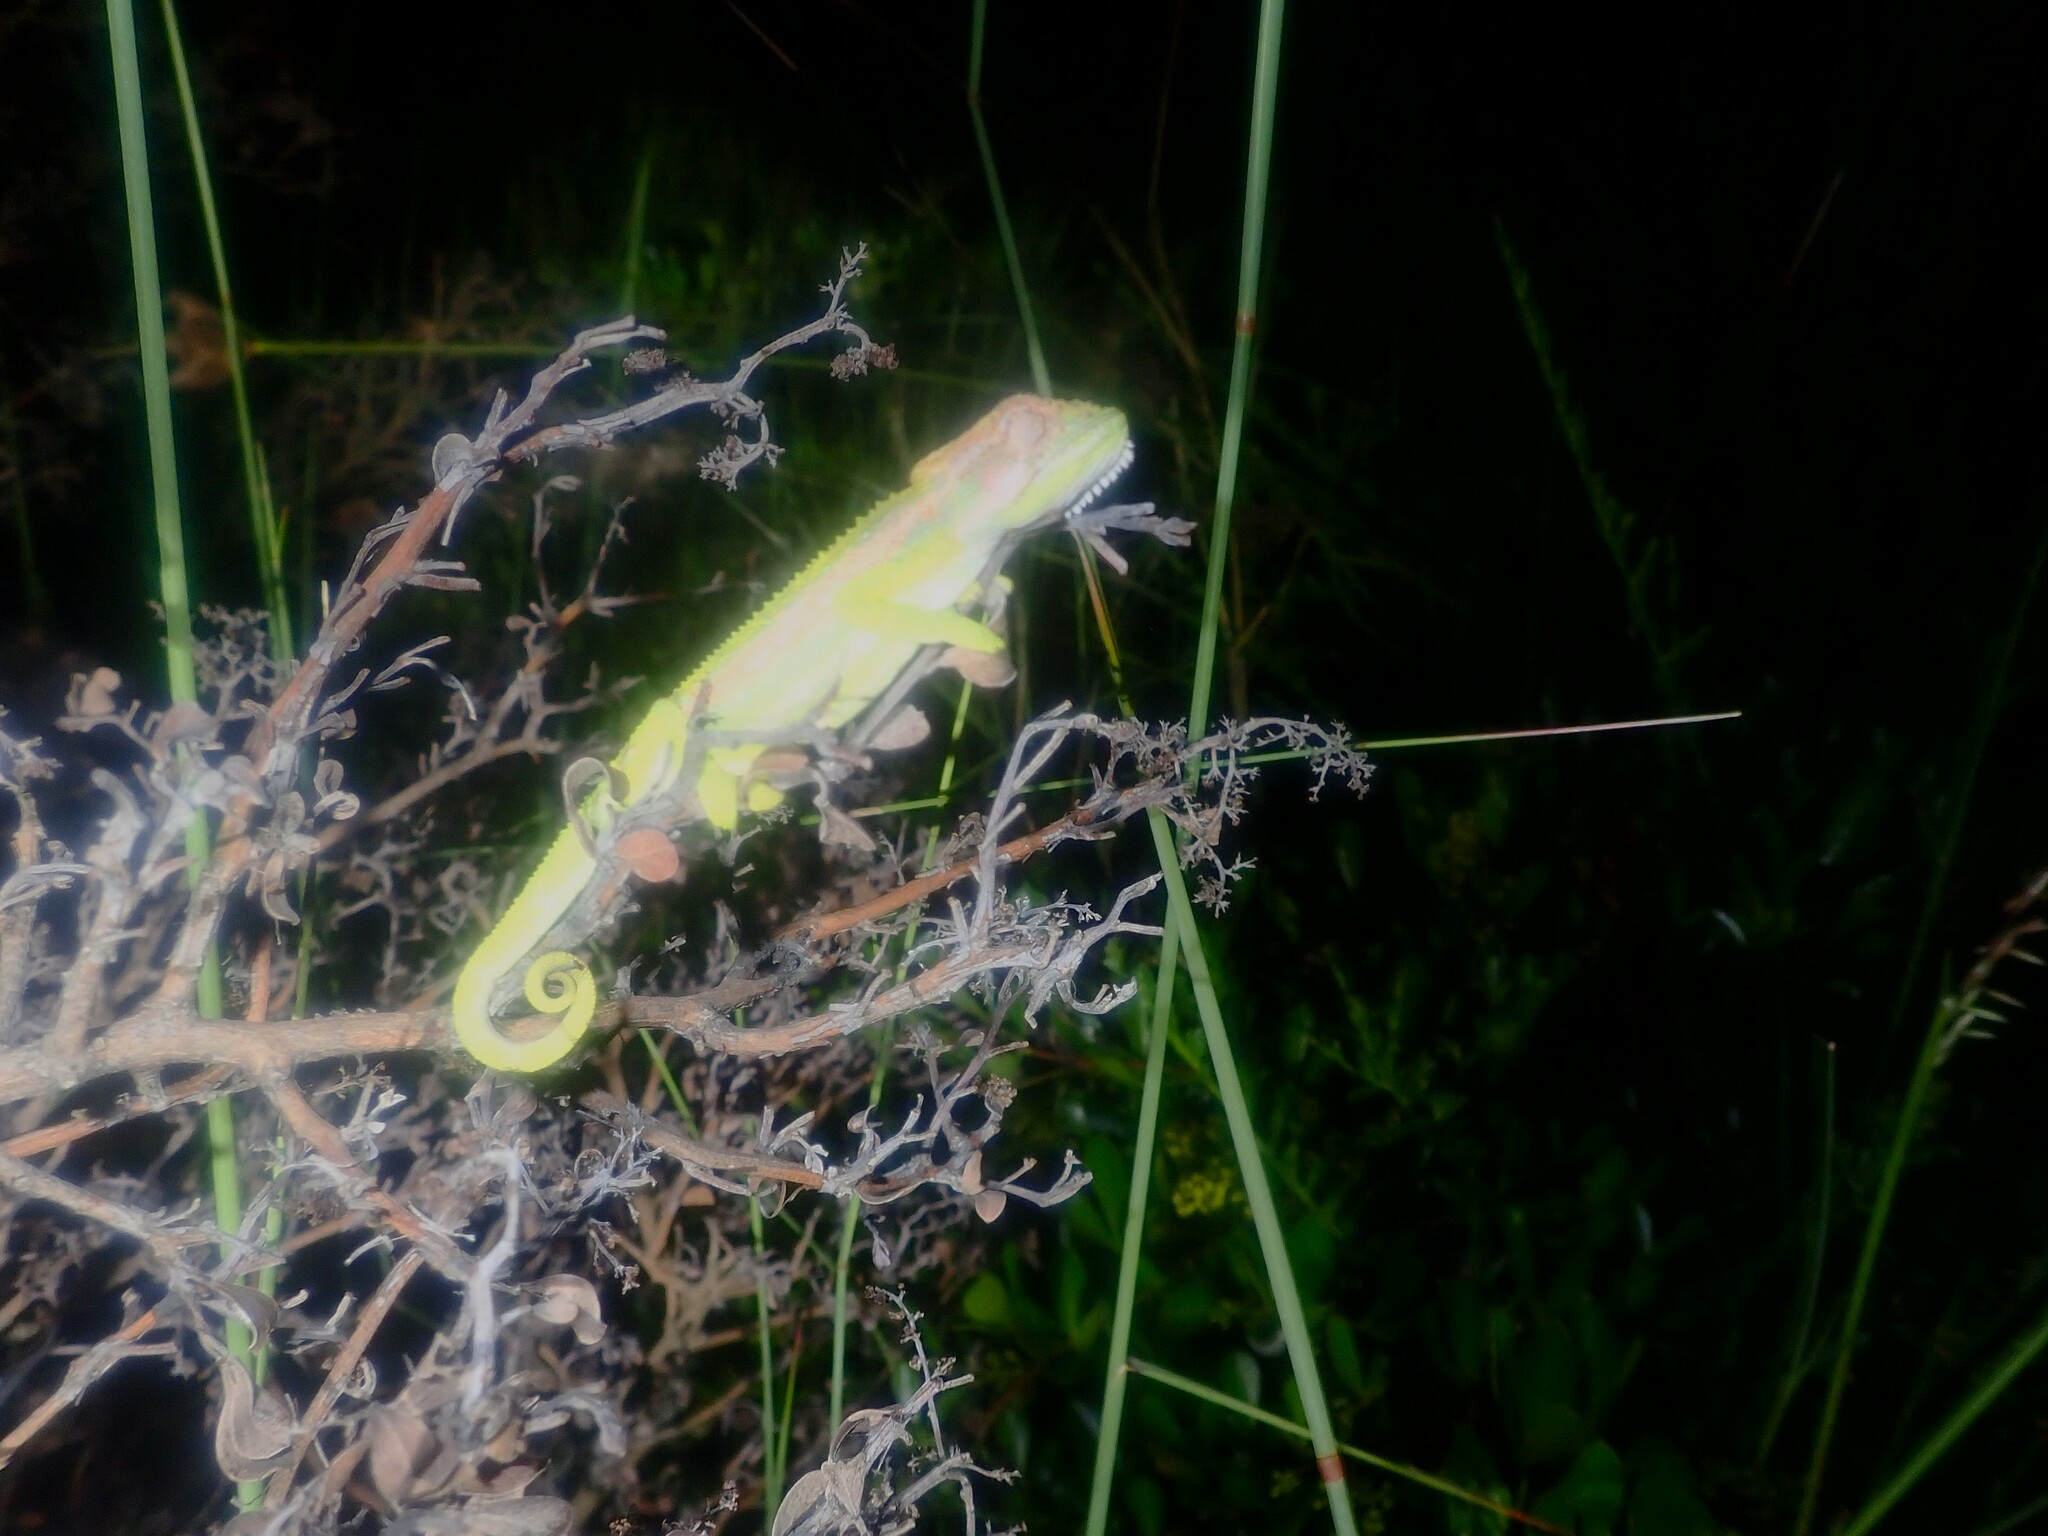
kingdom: Animalia
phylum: Chordata
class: Squamata
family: Chamaeleonidae
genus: Bradypodion
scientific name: Bradypodion pumilum
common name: Cape dwarf chameleon
